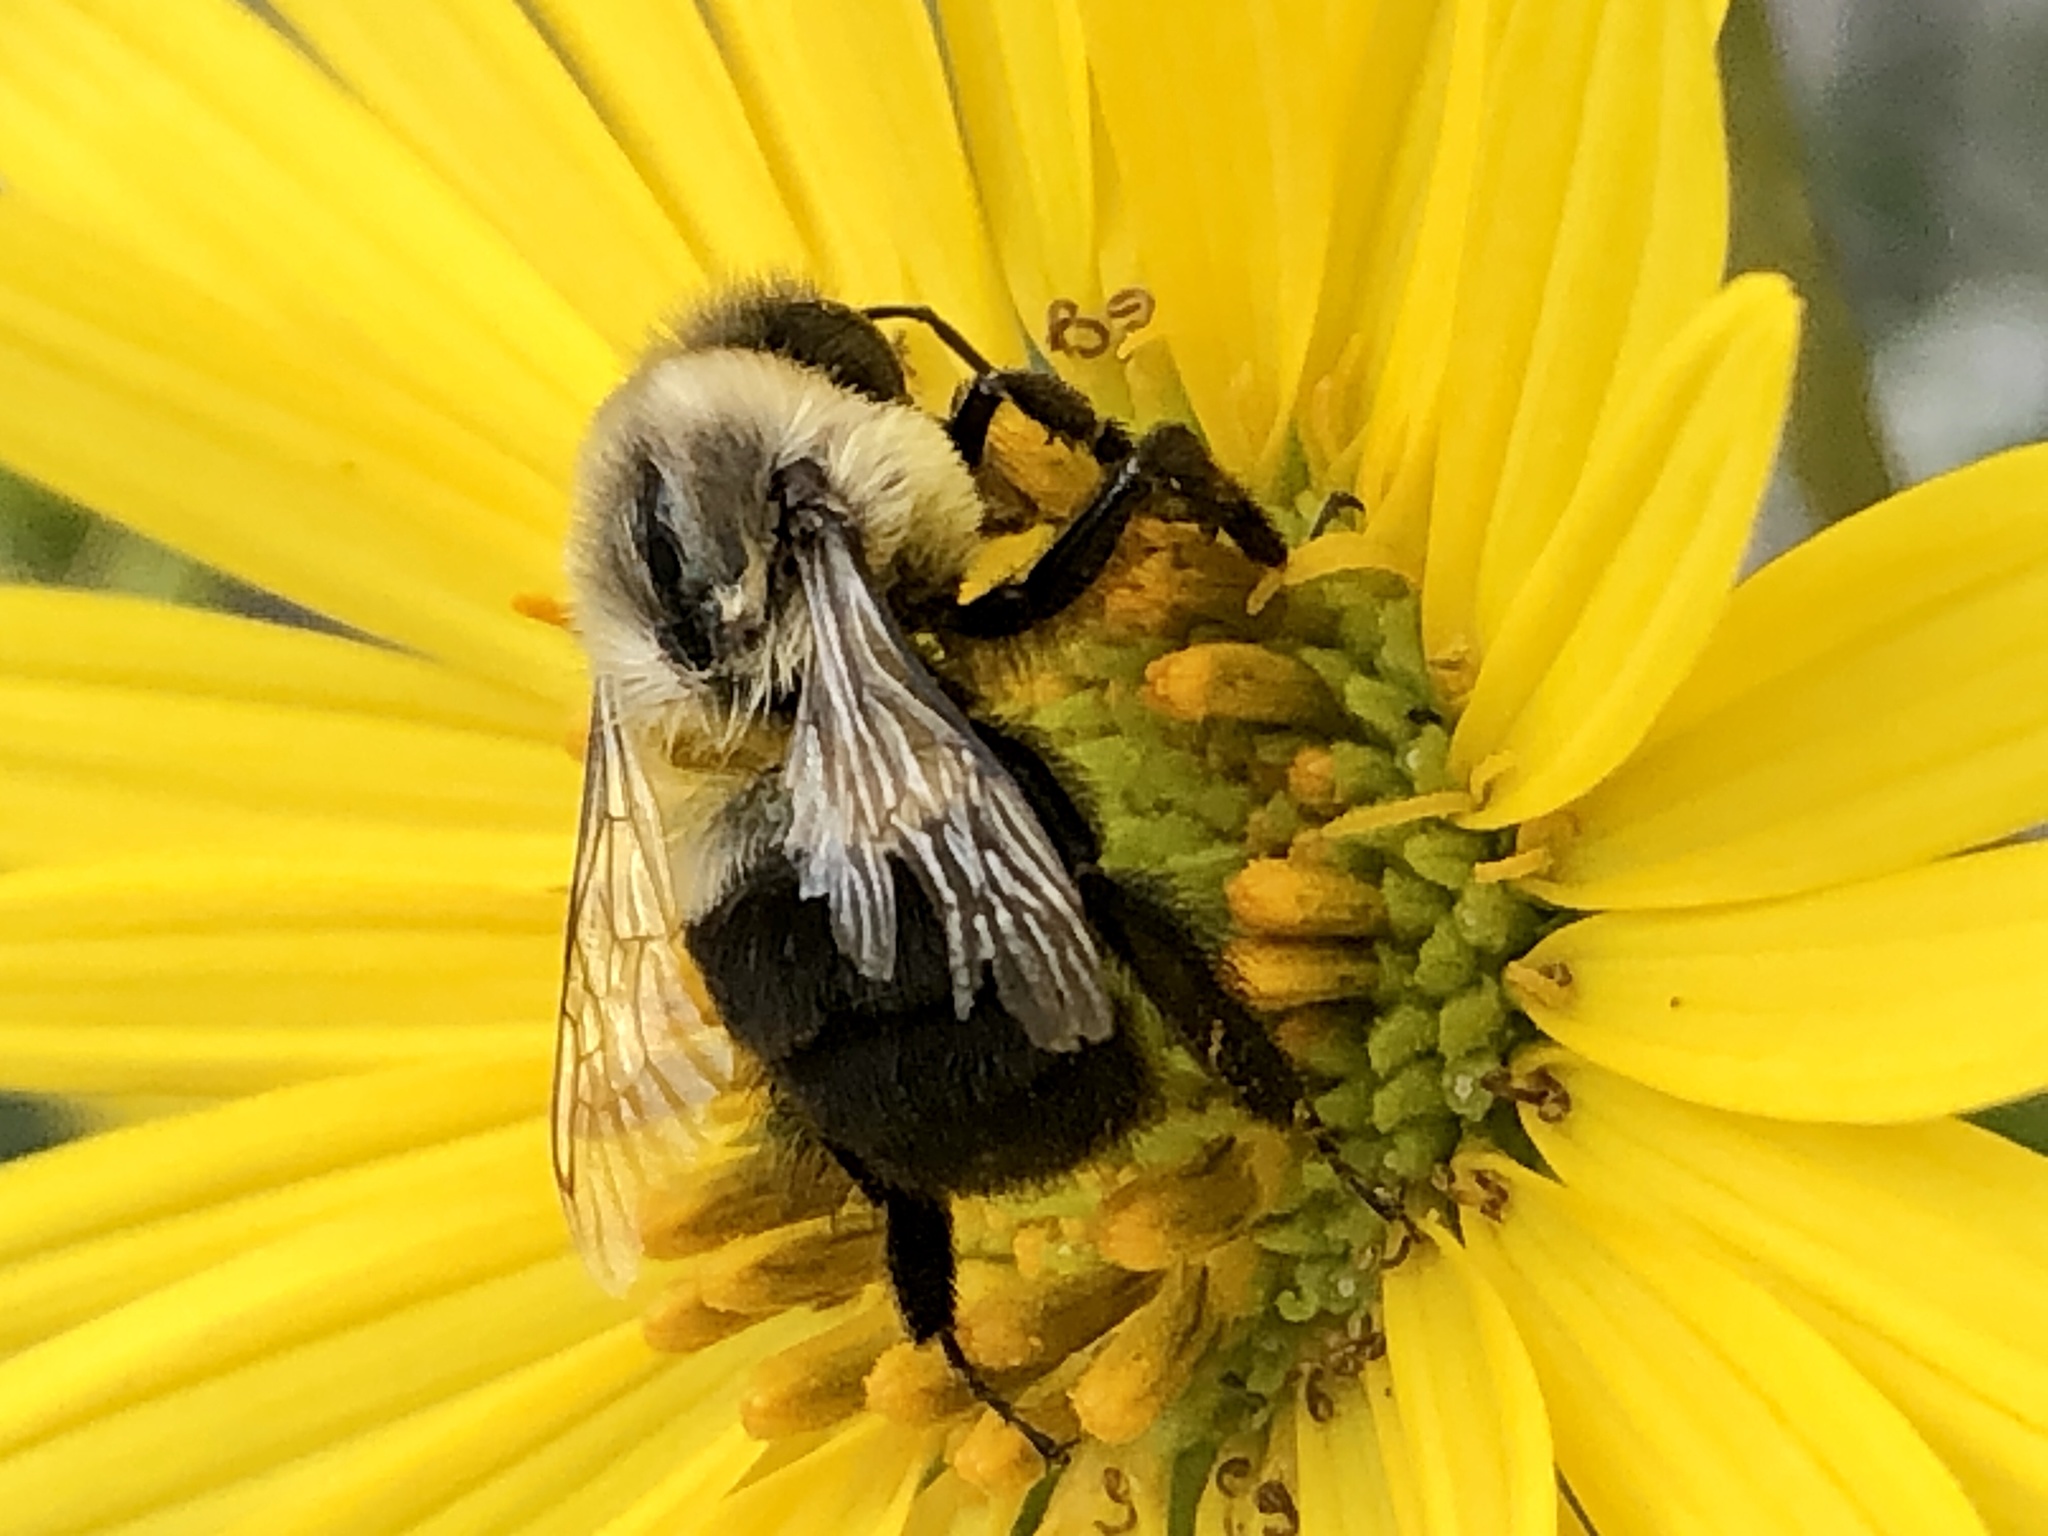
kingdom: Animalia
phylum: Arthropoda
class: Insecta
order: Hymenoptera
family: Apidae
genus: Bombus
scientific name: Bombus impatiens
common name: Common eastern bumble bee
